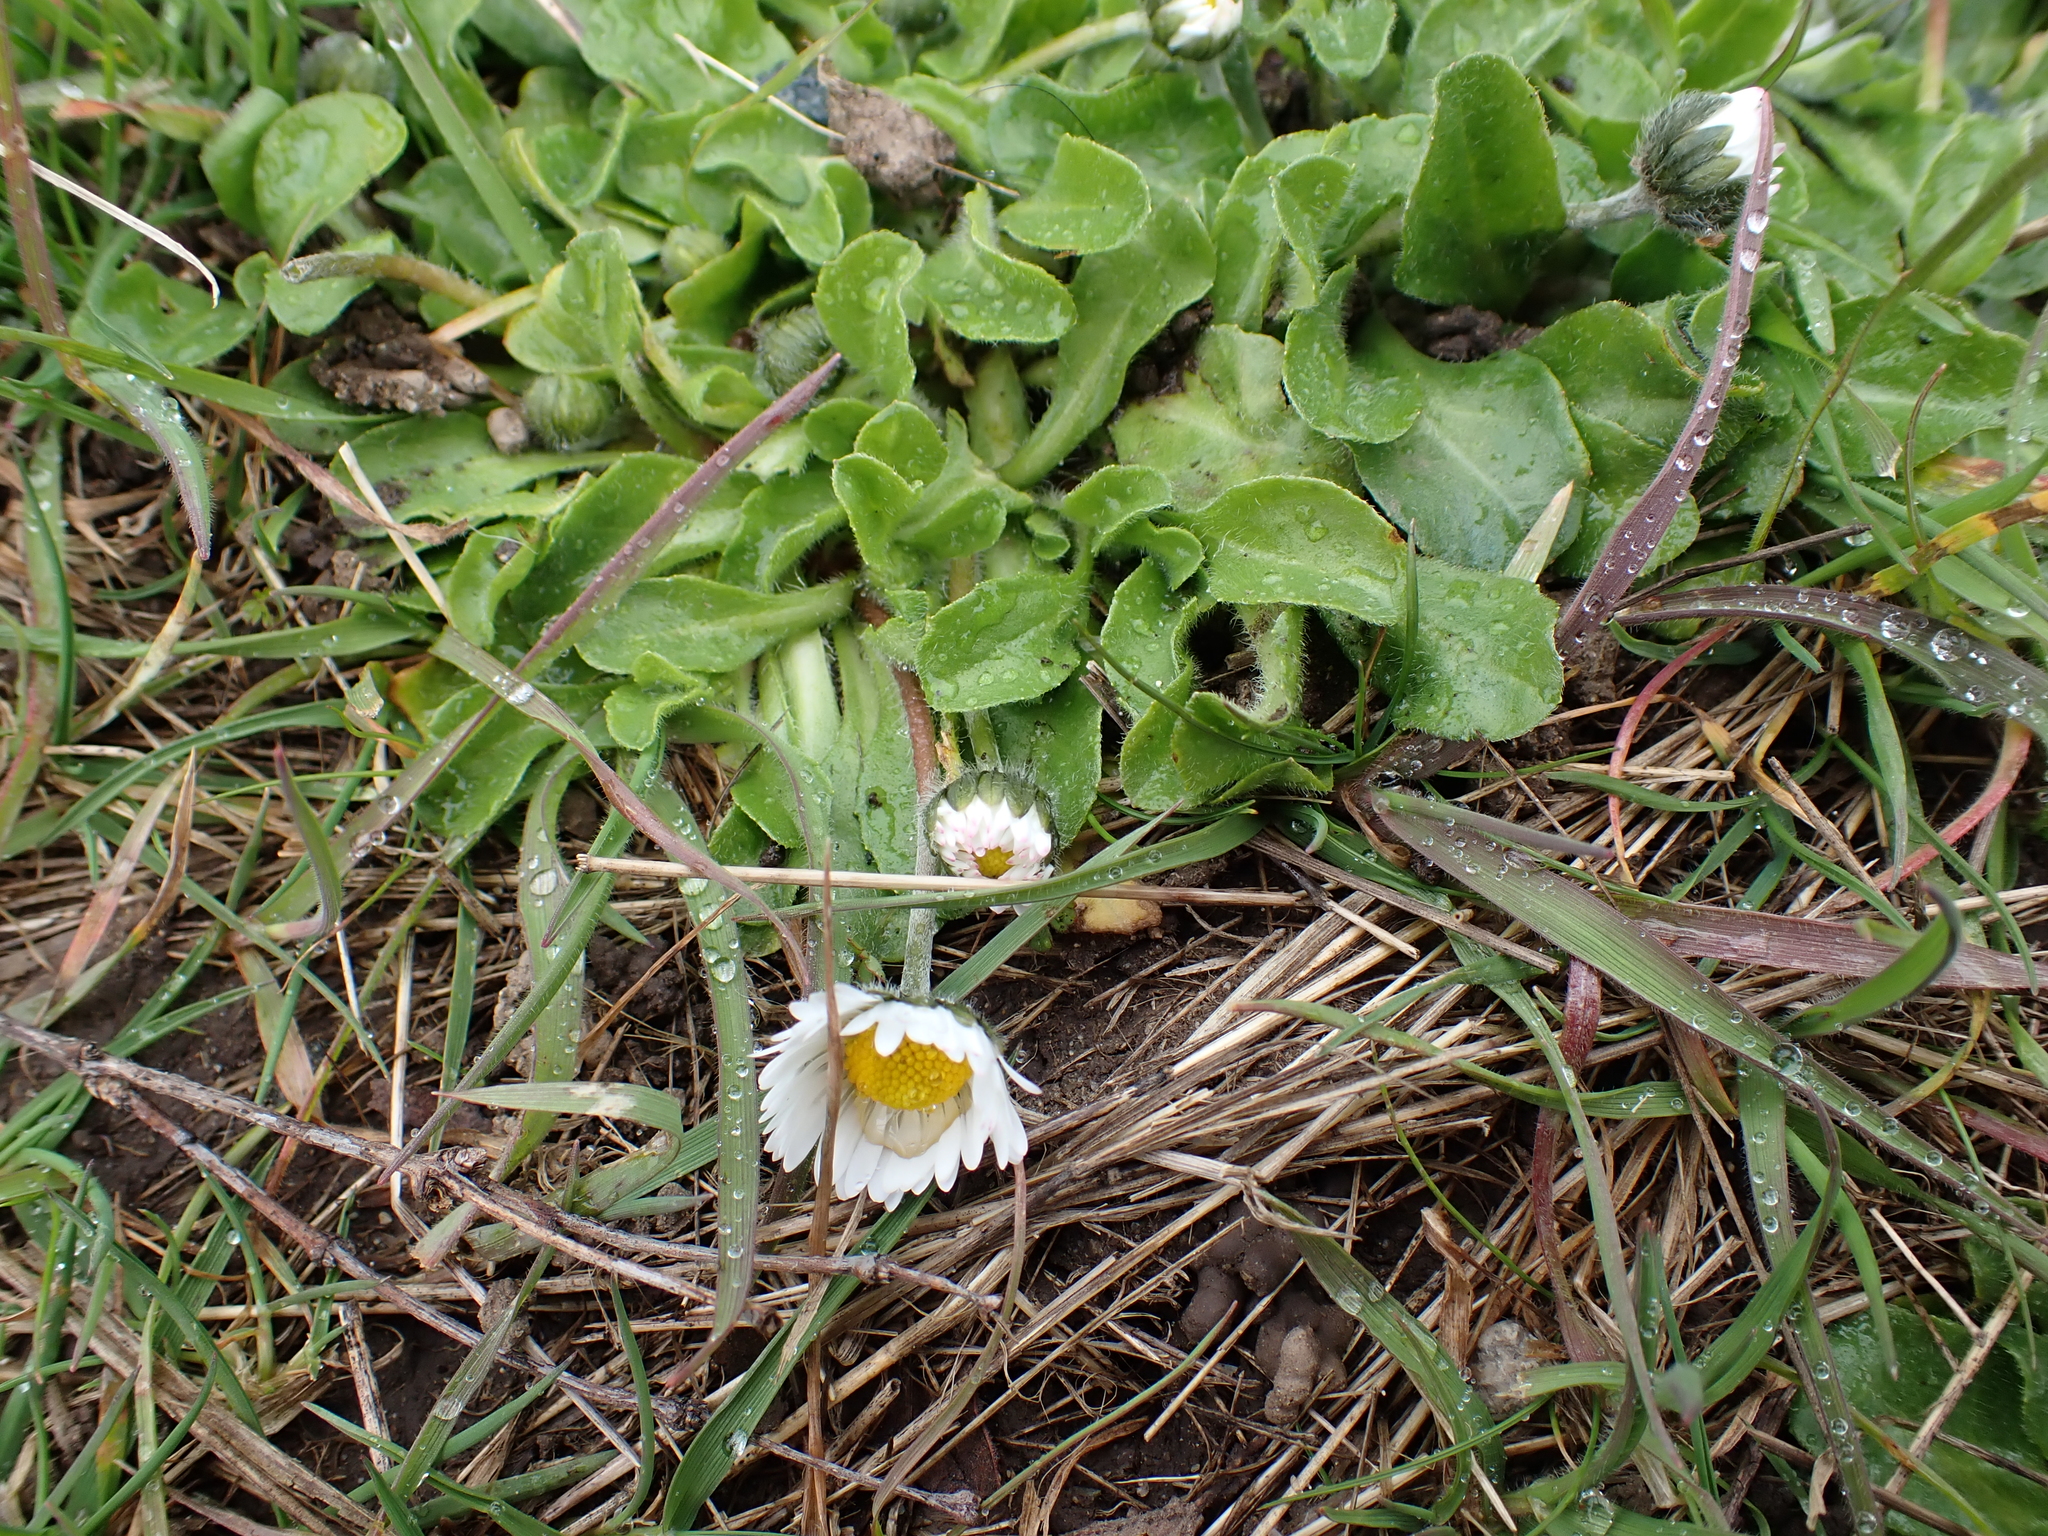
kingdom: Plantae
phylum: Tracheophyta
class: Magnoliopsida
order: Asterales
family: Asteraceae
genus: Bellis
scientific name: Bellis perennis
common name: Lawndaisy
